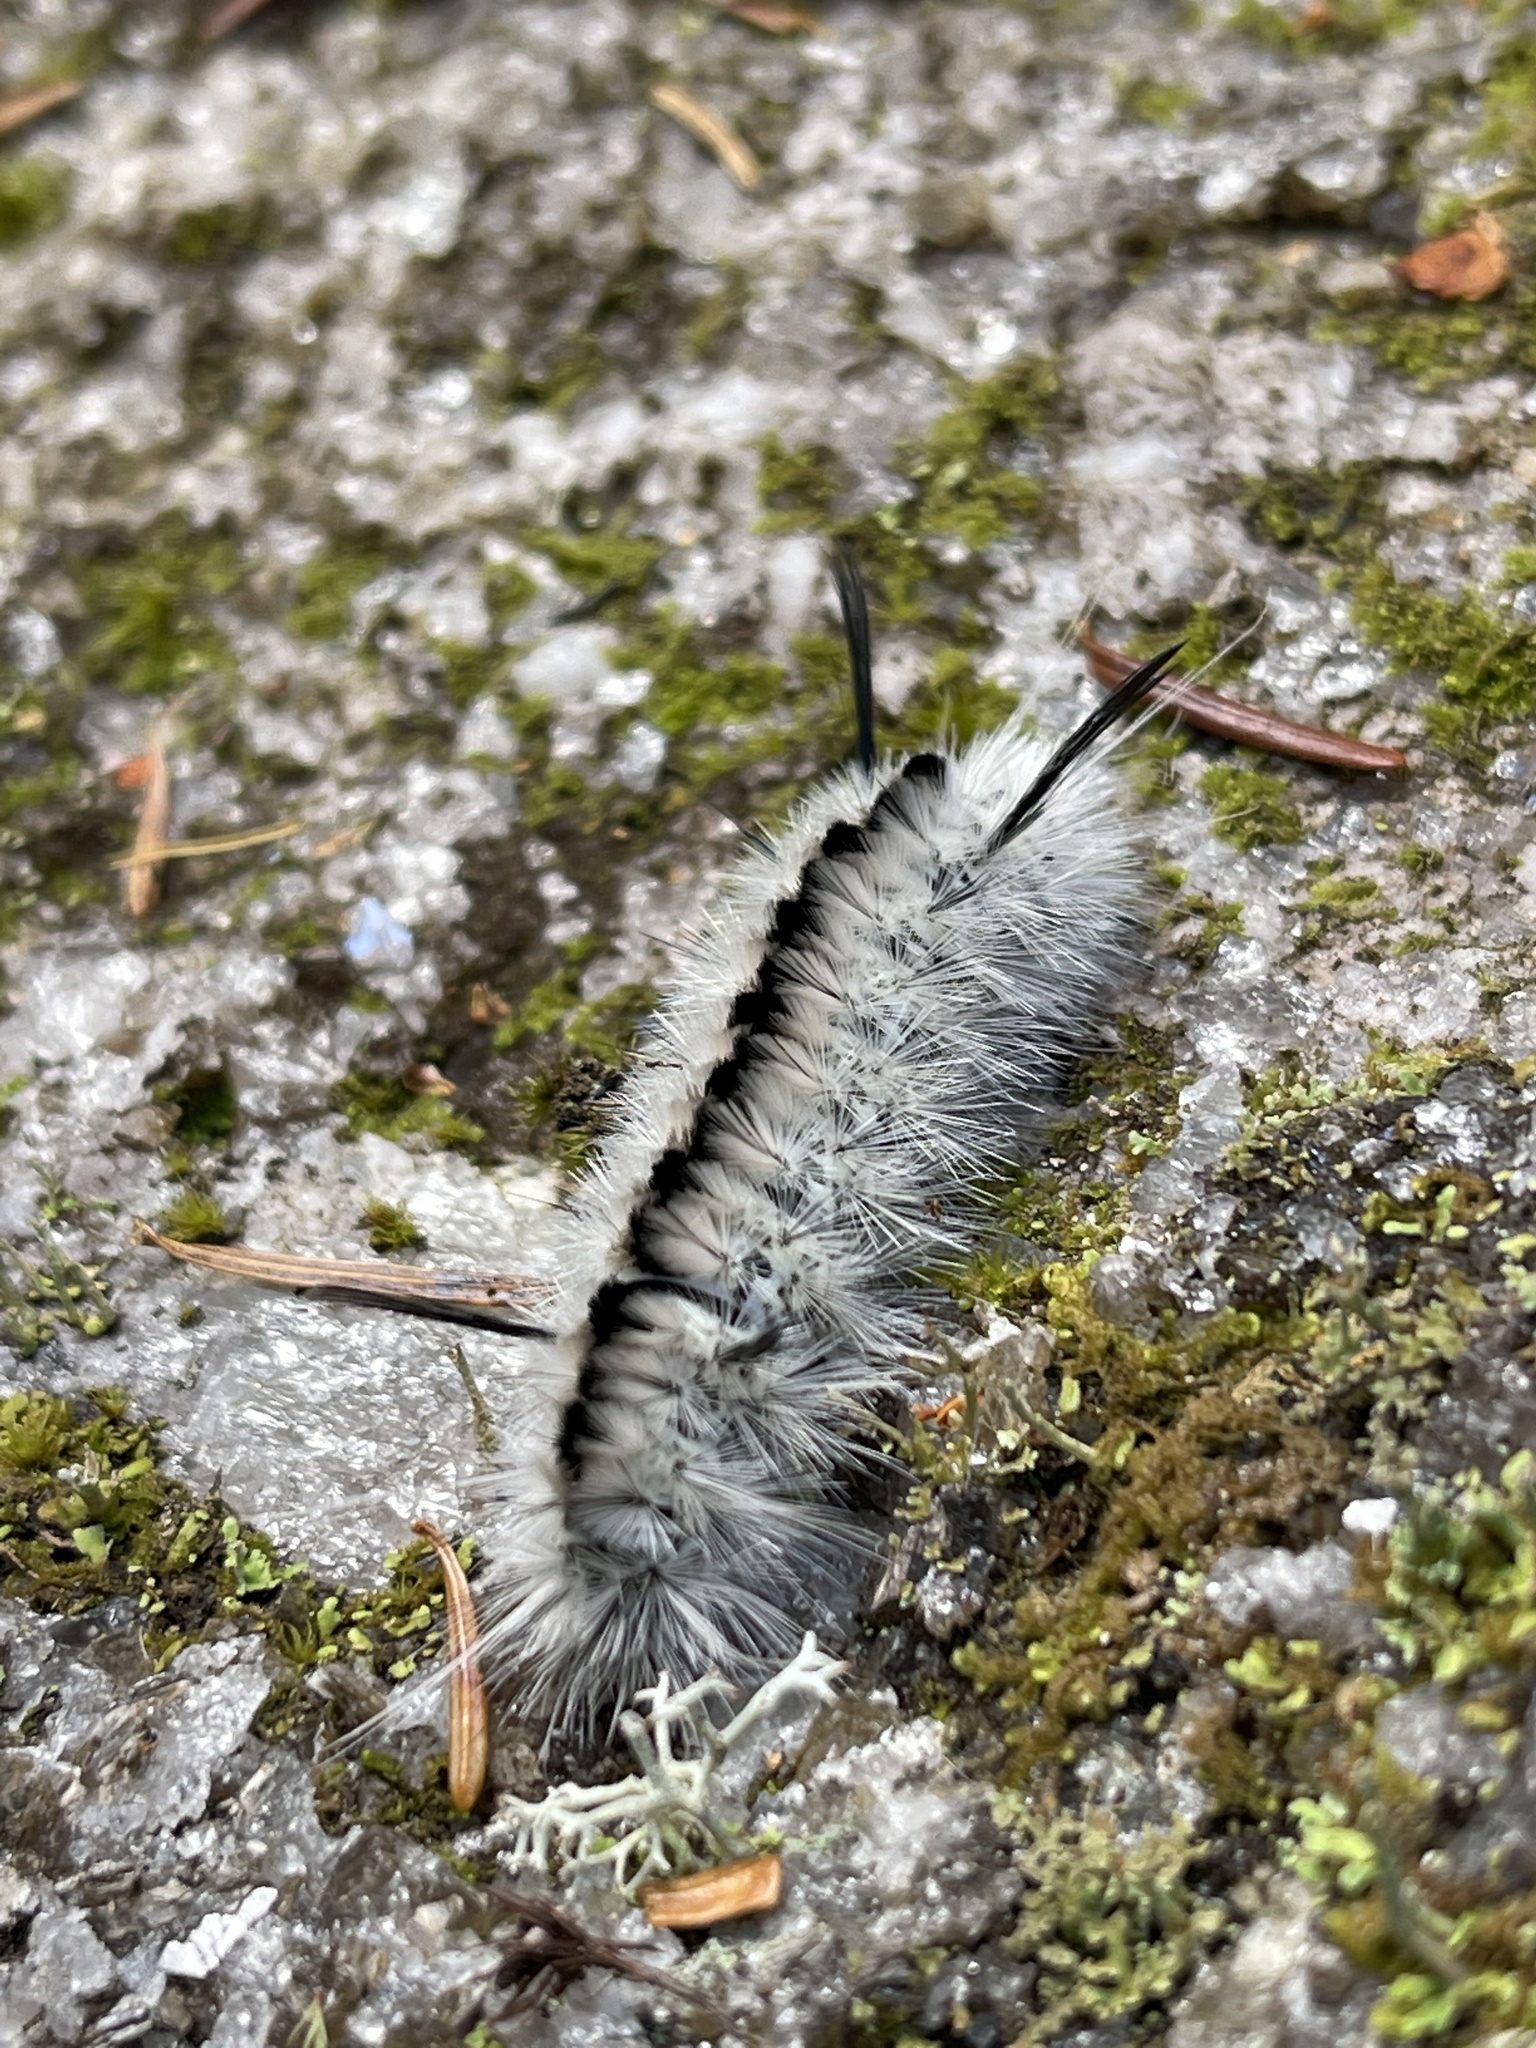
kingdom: Animalia
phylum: Arthropoda
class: Insecta
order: Lepidoptera
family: Erebidae
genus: Lophocampa
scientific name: Lophocampa caryae
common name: Hickory tussock moth
